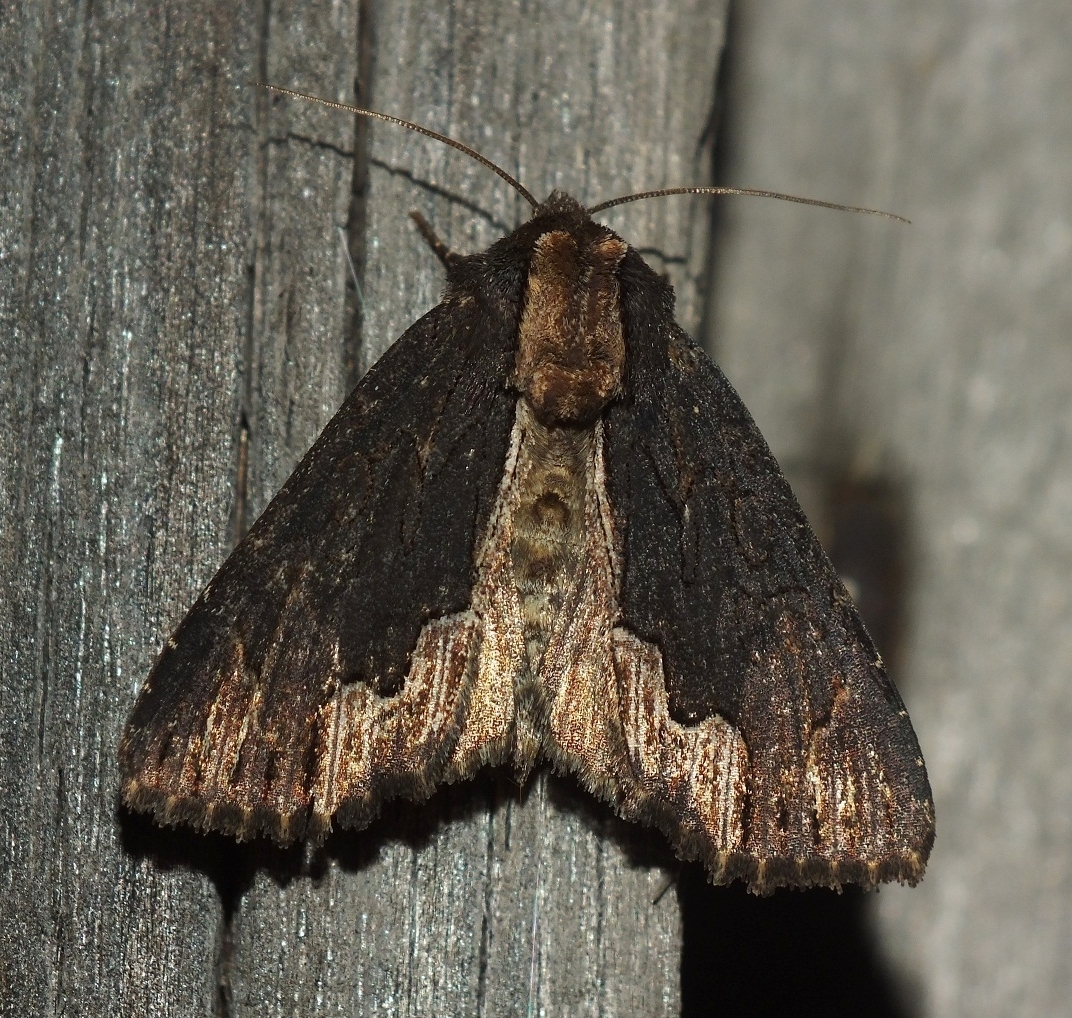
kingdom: Animalia
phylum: Arthropoda
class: Insecta
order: Lepidoptera
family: Noctuidae
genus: Dypterygia
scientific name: Dypterygia scabriuscula
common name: Bird's wing
